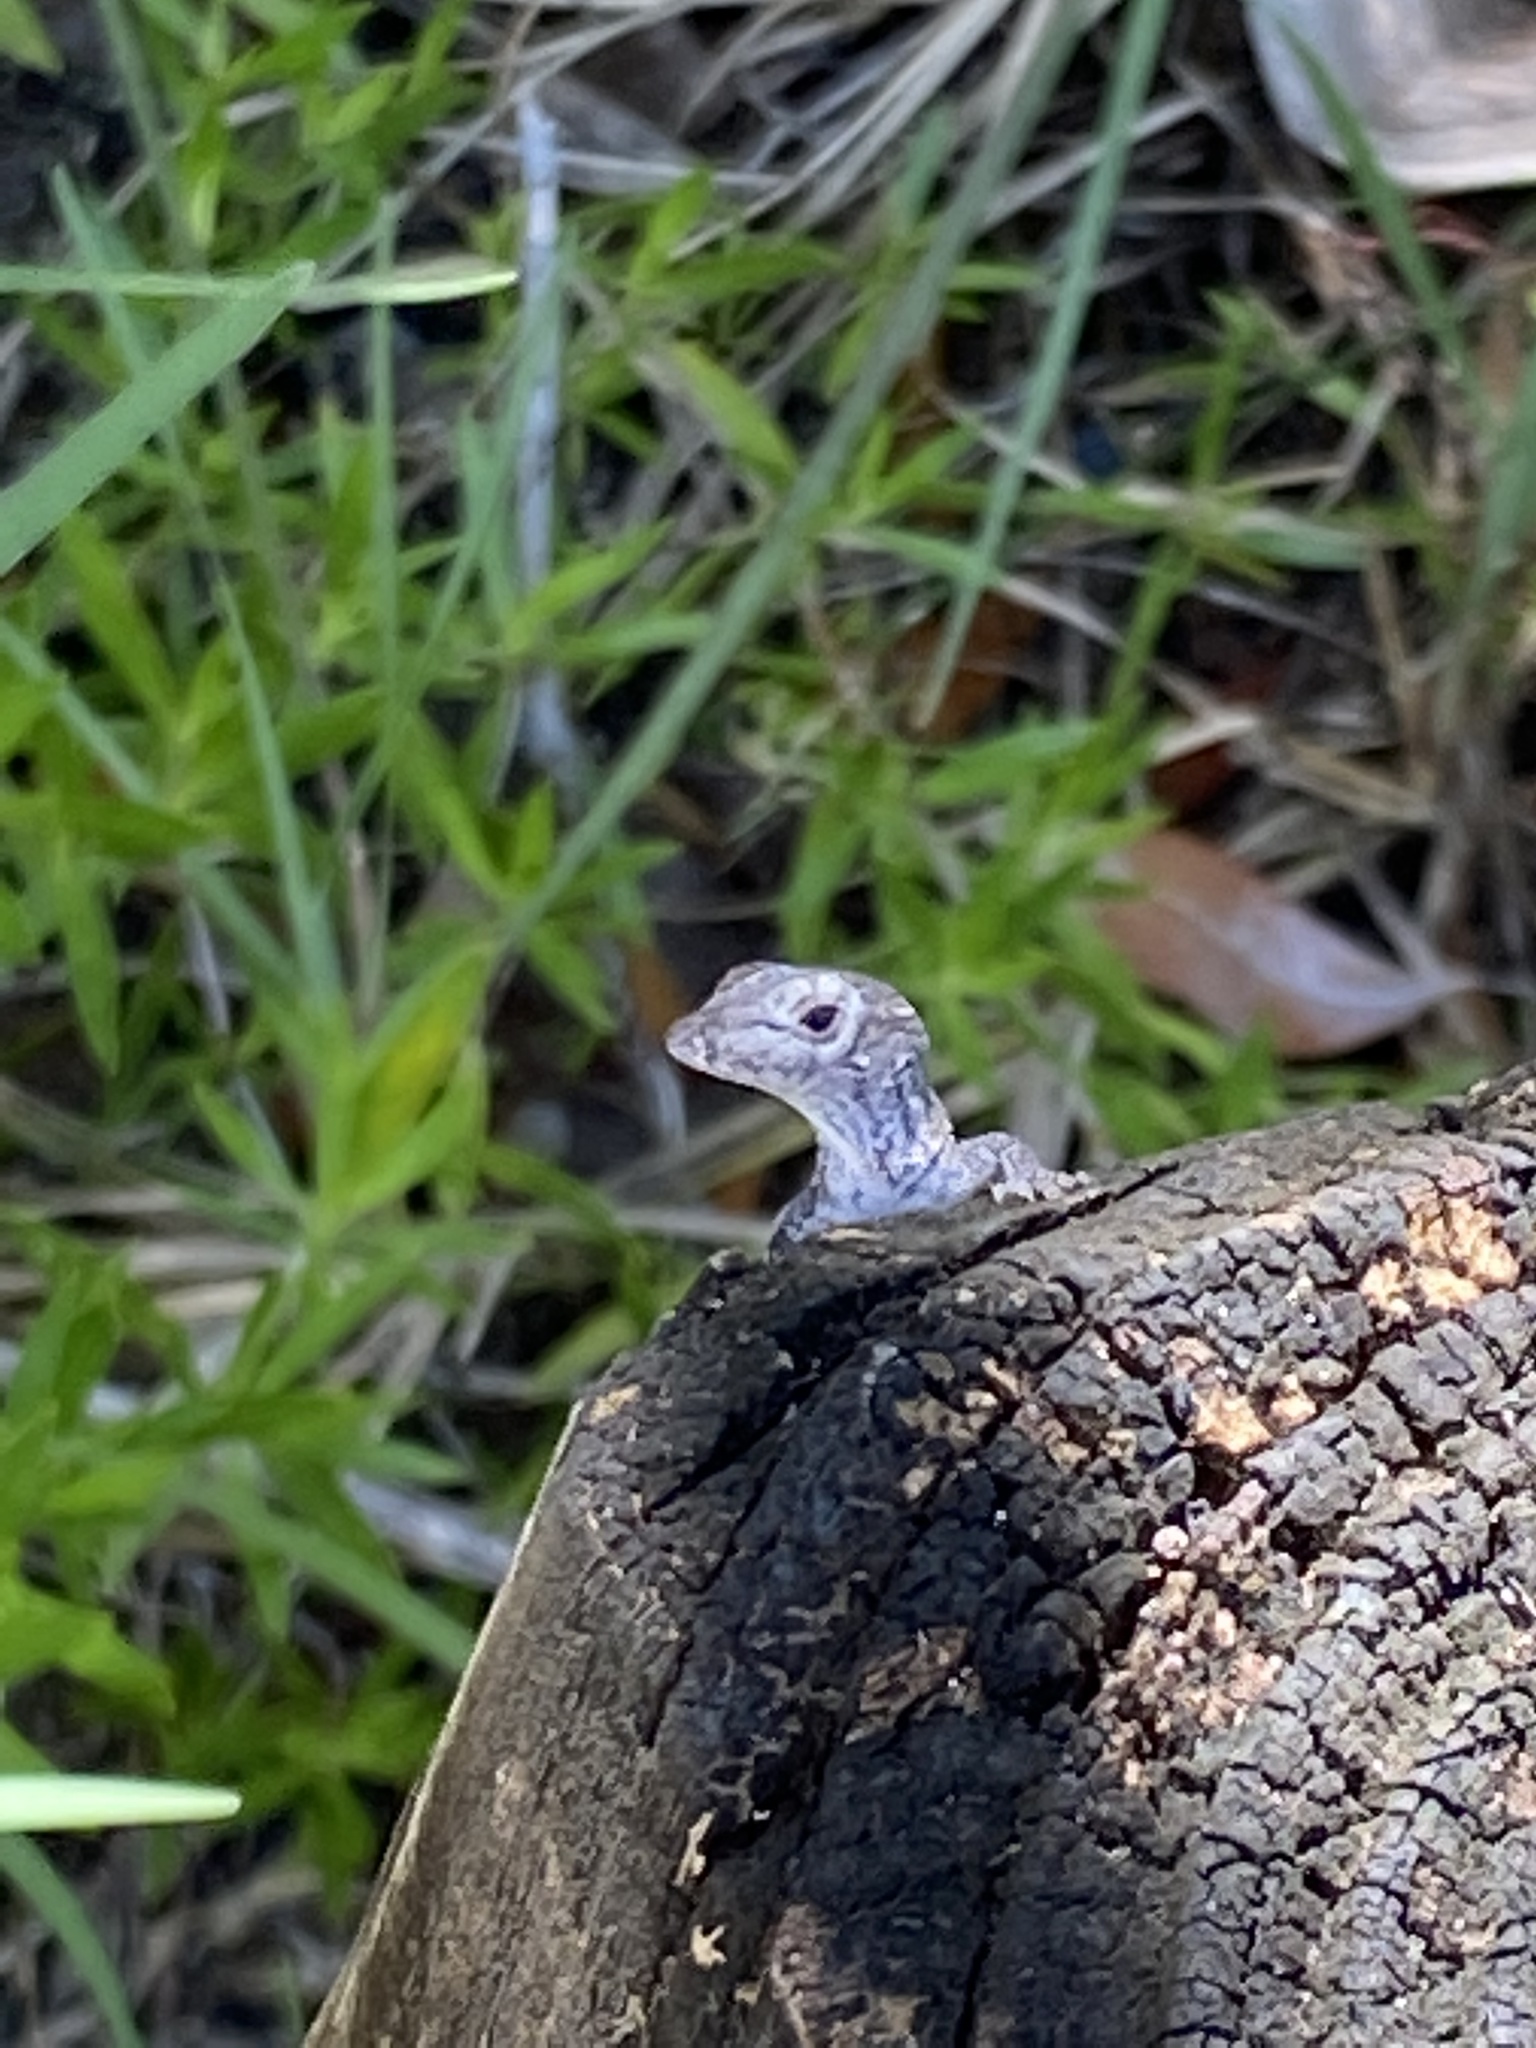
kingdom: Animalia
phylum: Chordata
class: Squamata
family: Dactyloidae
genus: Anolis
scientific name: Anolis sagrei
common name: Brown anole
